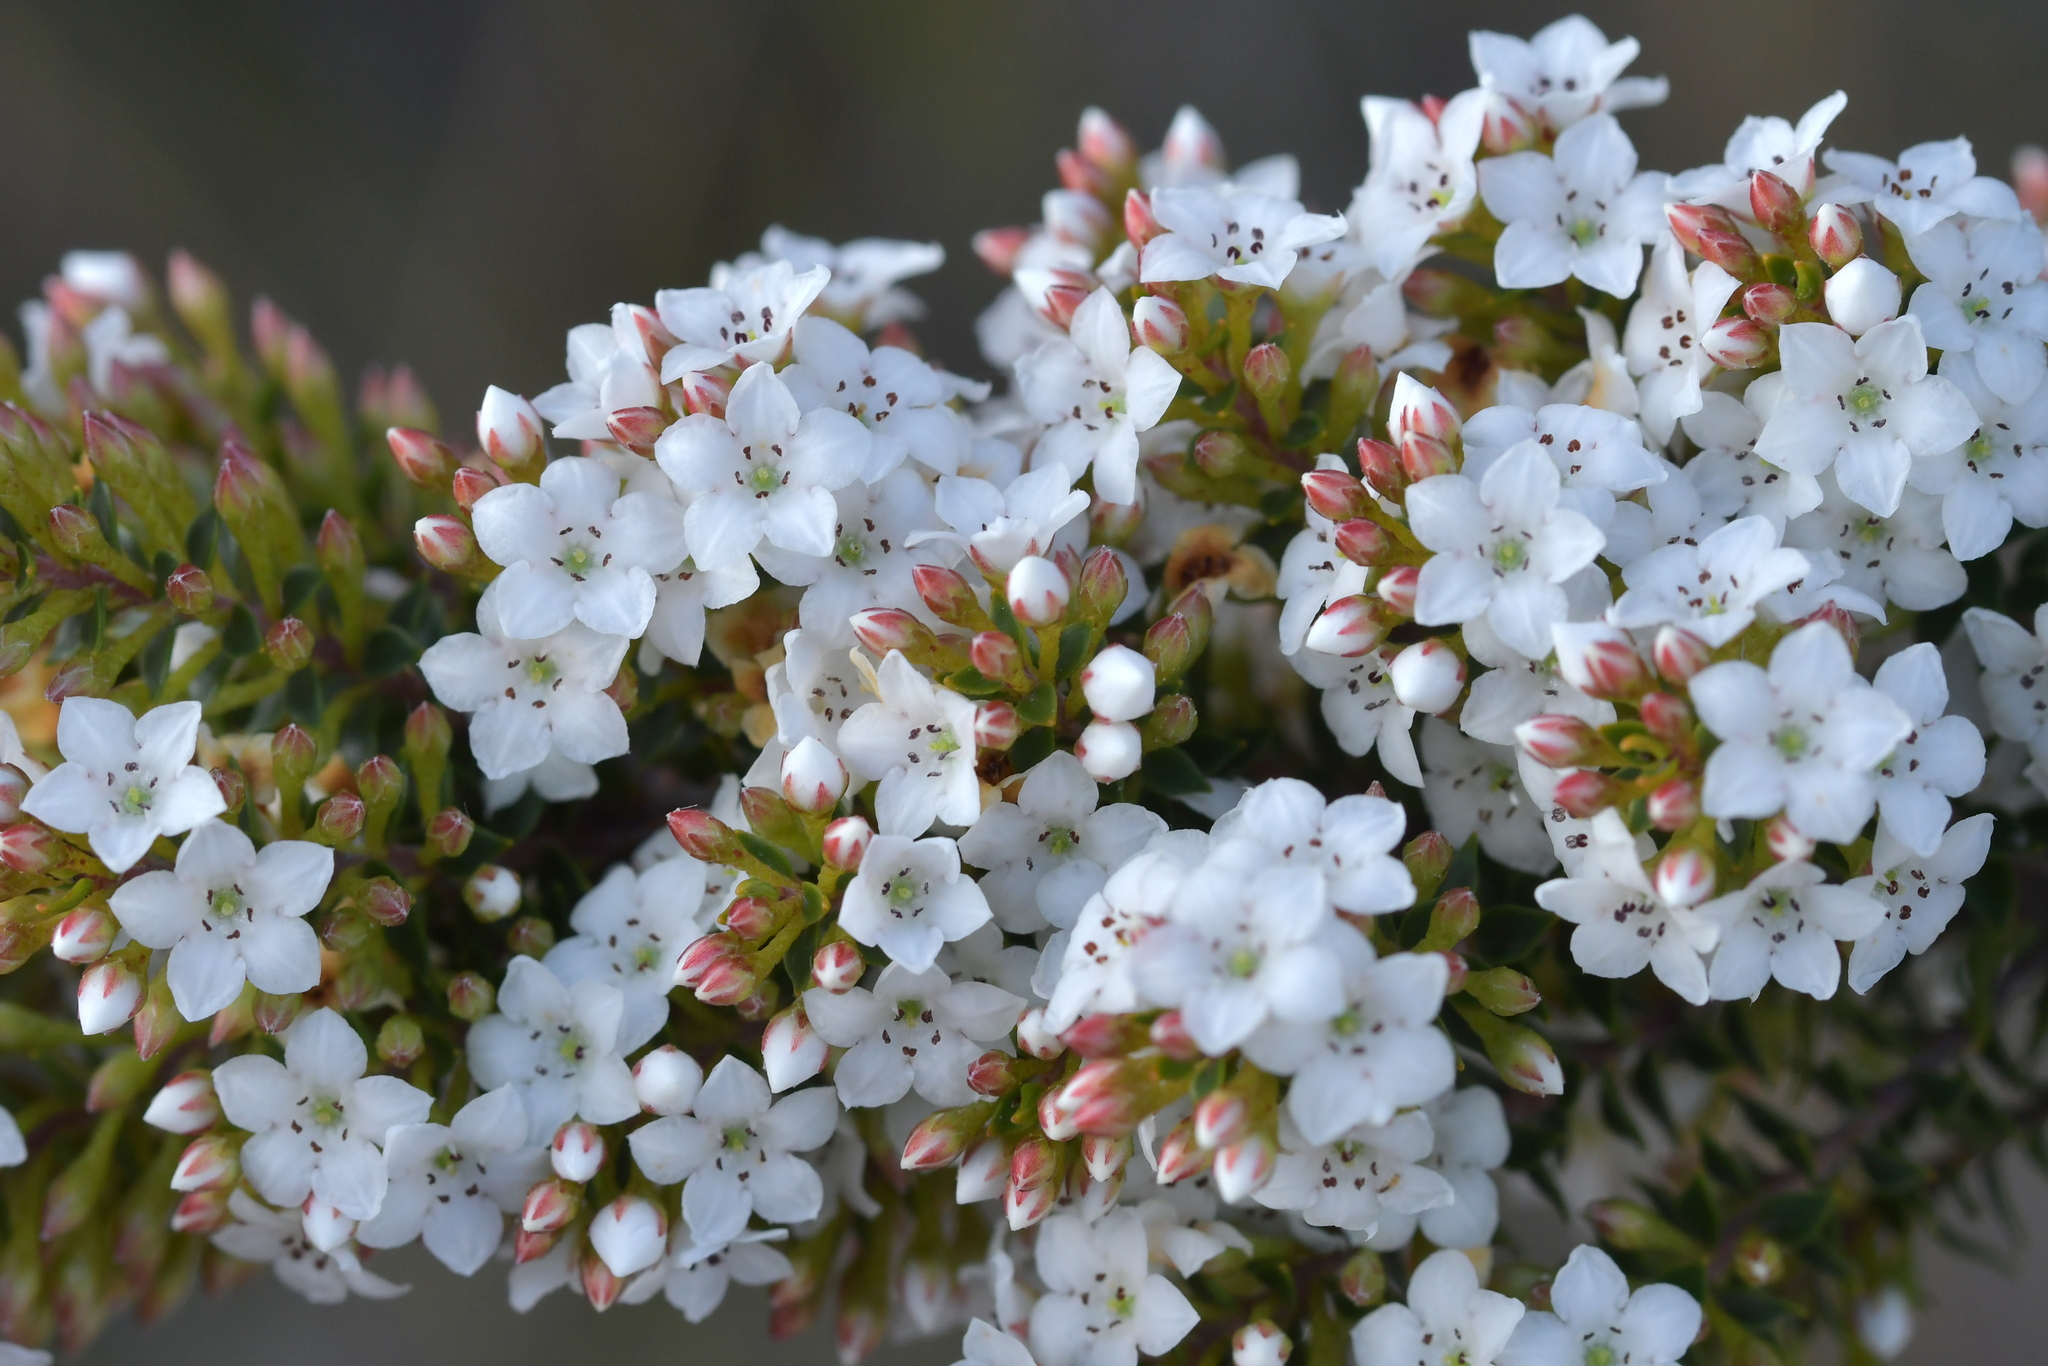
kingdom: Plantae
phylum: Tracheophyta
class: Magnoliopsida
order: Ericales
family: Ericaceae
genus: Epacris
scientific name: Epacris pauciflora
